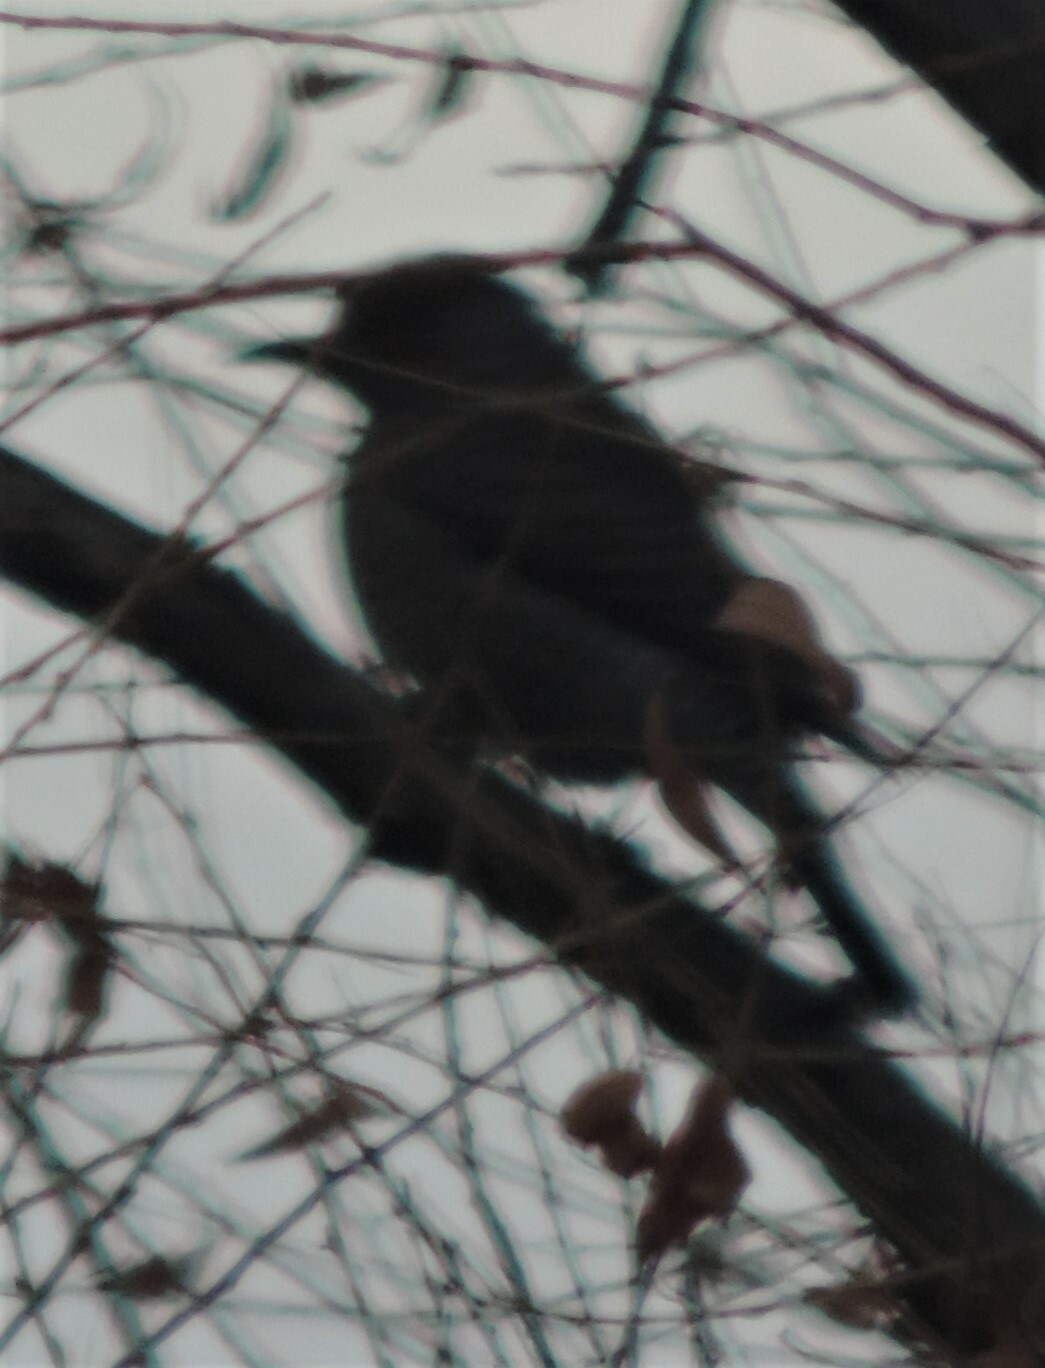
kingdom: Animalia
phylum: Chordata
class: Aves
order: Piciformes
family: Picidae
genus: Colaptes
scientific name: Colaptes auratus
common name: Northern flicker
